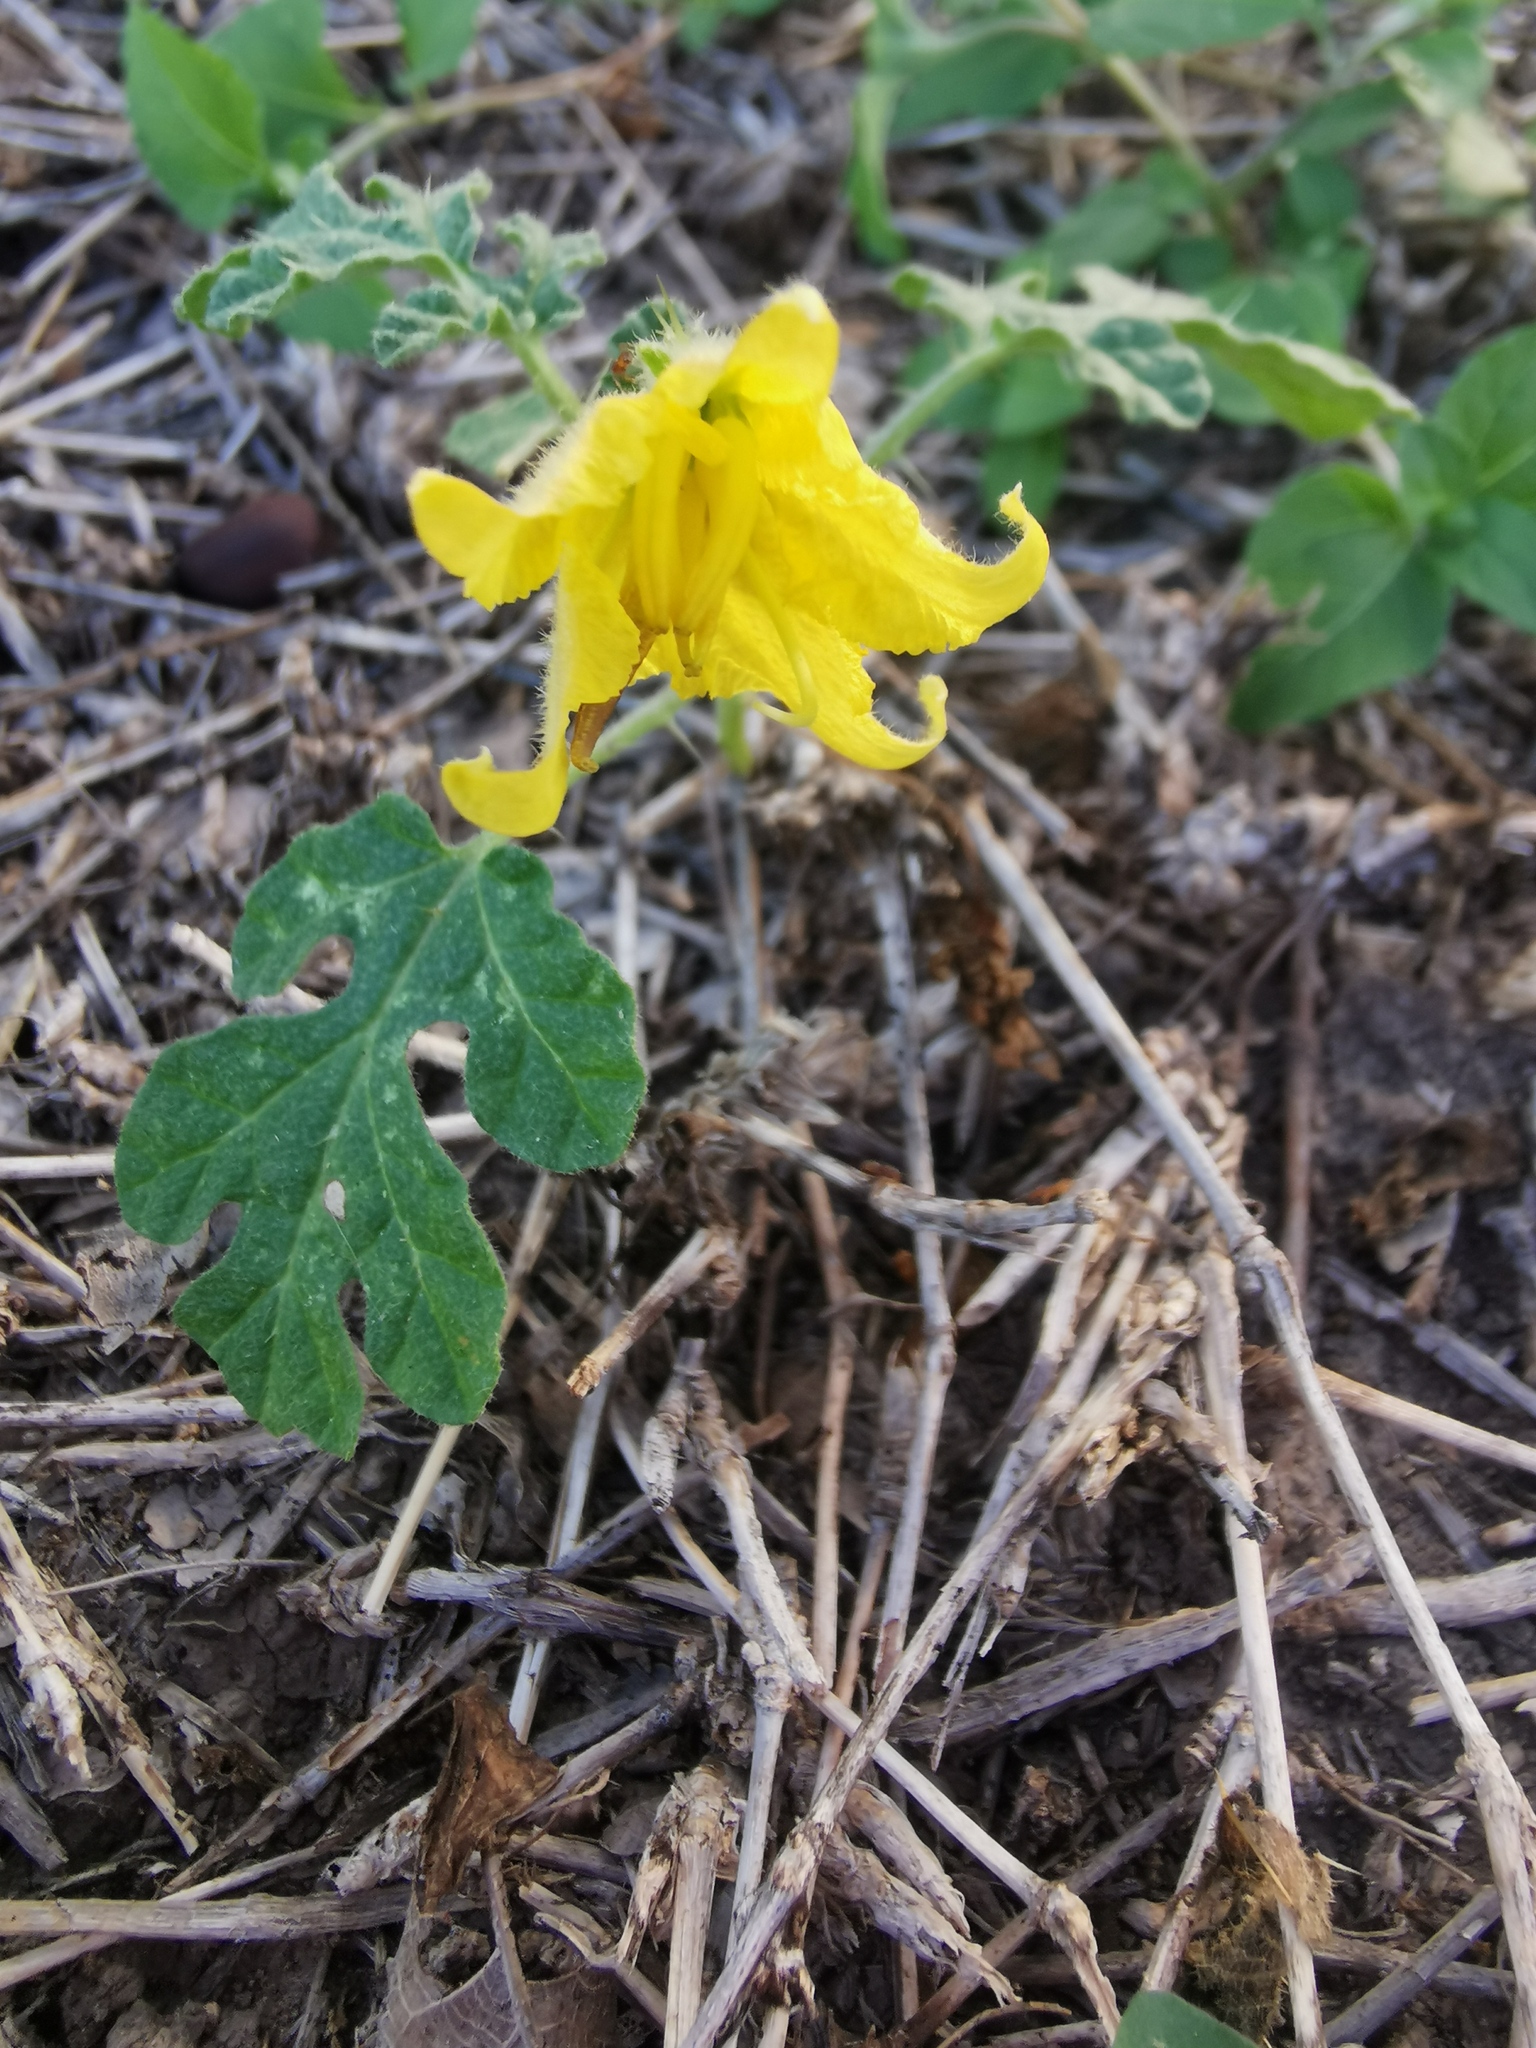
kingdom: Plantae
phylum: Tracheophyta
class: Magnoliopsida
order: Solanales
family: Solanaceae
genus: Solanum
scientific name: Solanum angustifolium
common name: Buffalobur nightshade
